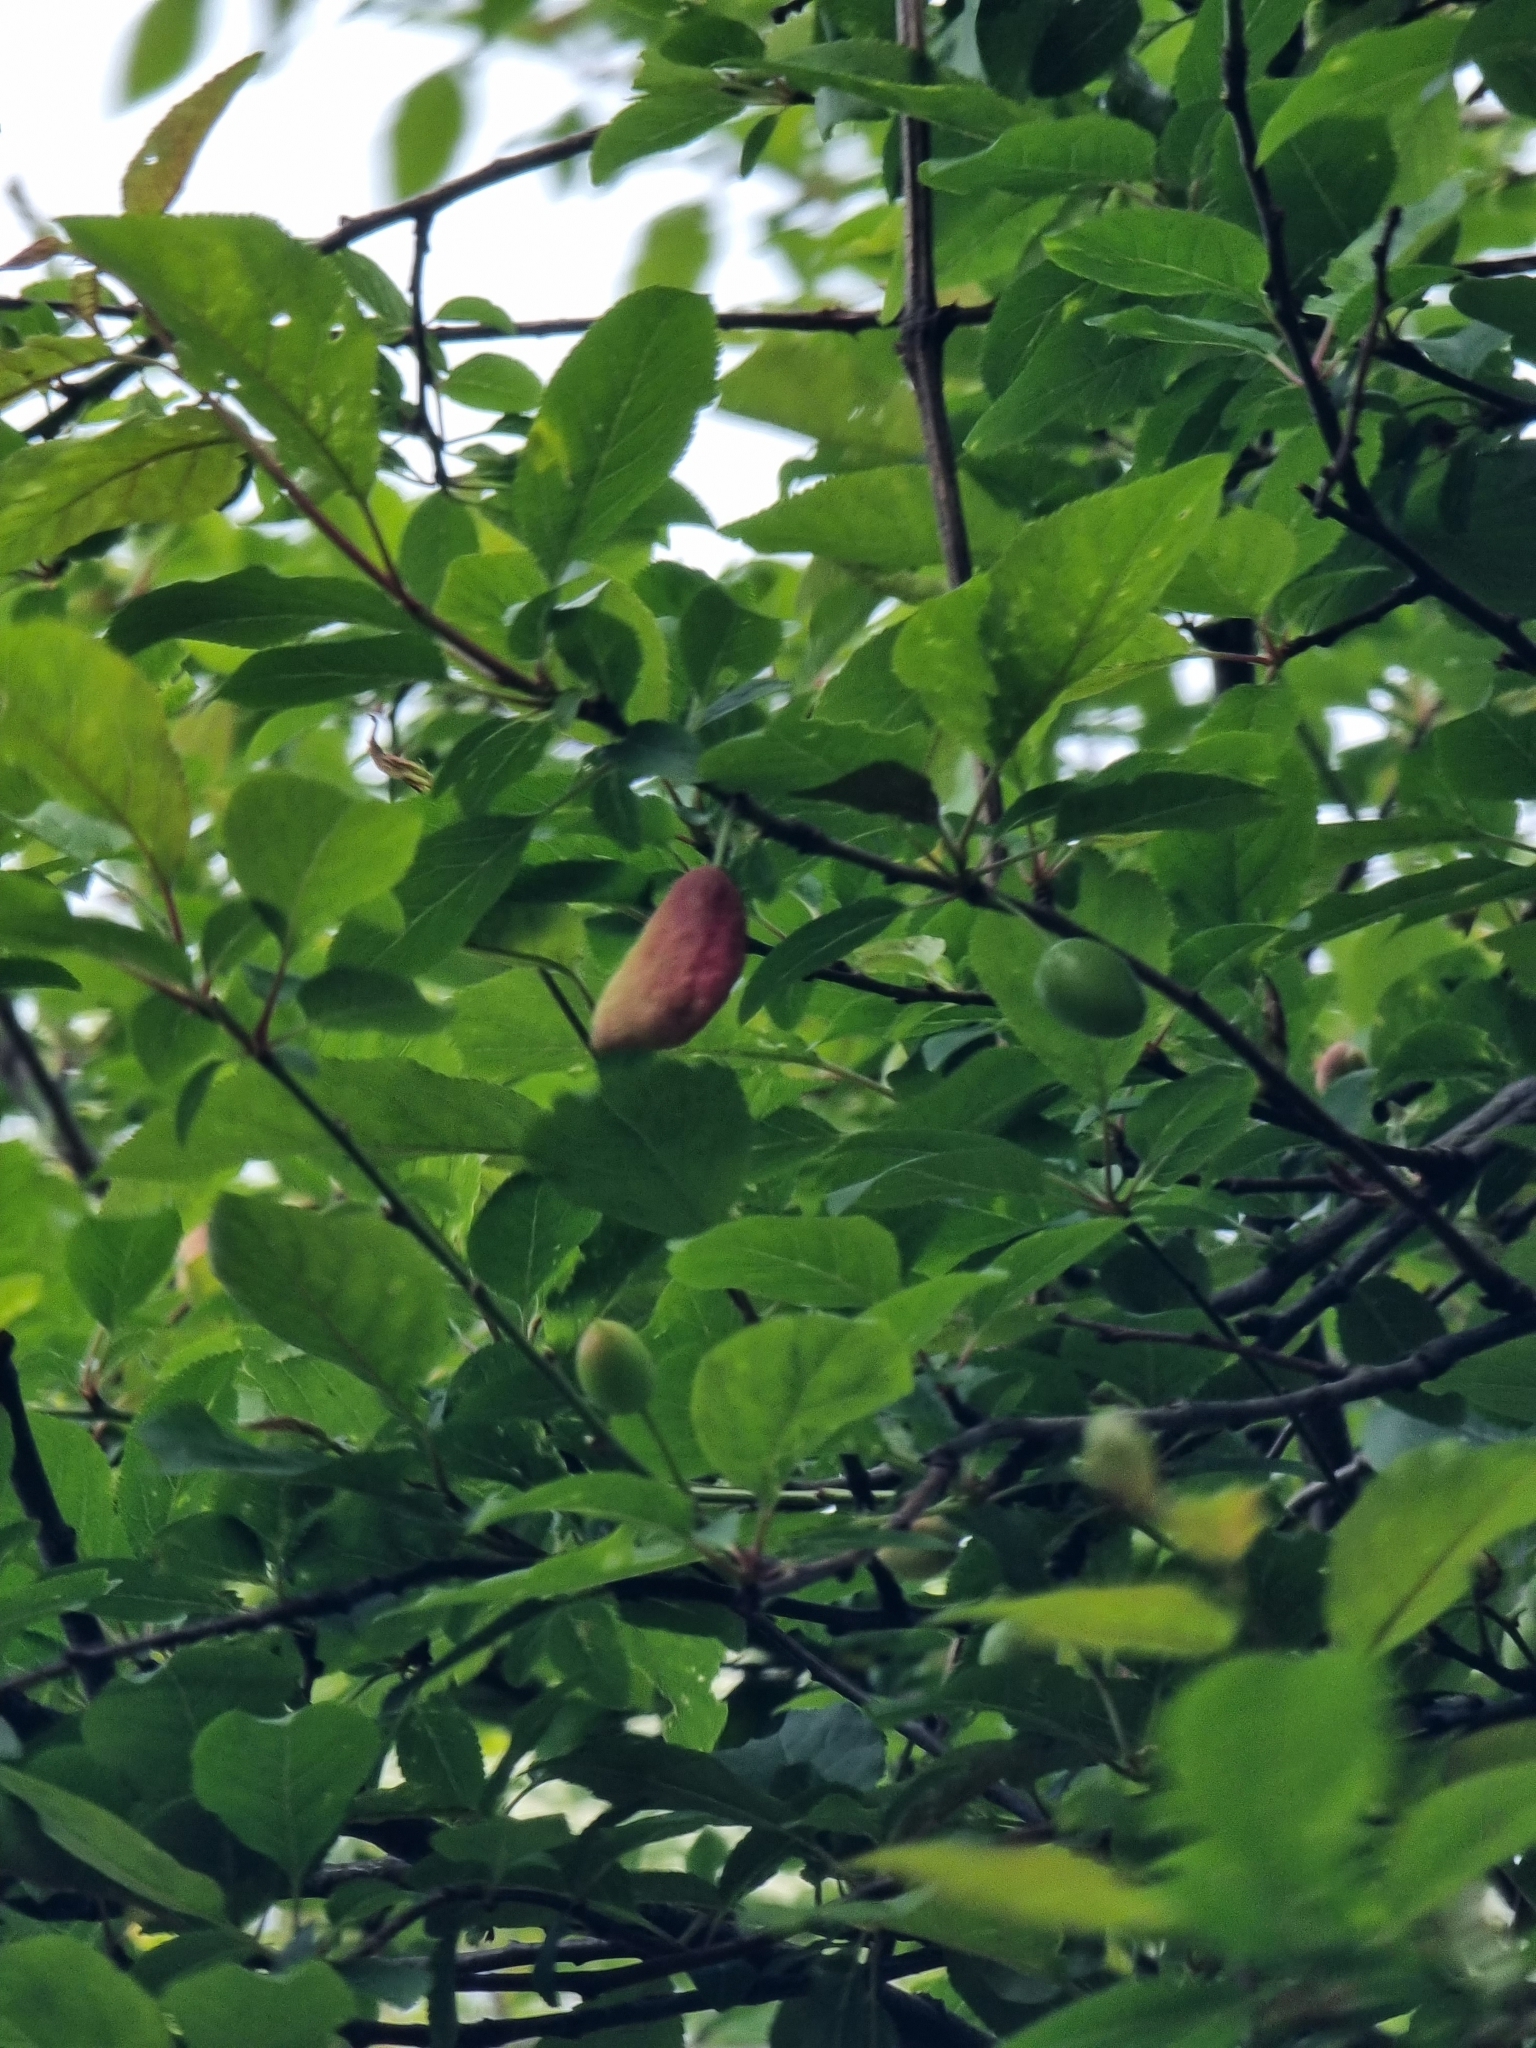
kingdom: Fungi
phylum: Ascomycota
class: Taphrinomycetes
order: Taphrinales
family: Taphrinaceae
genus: Taphrina
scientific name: Taphrina pruni
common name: Pocket plum
